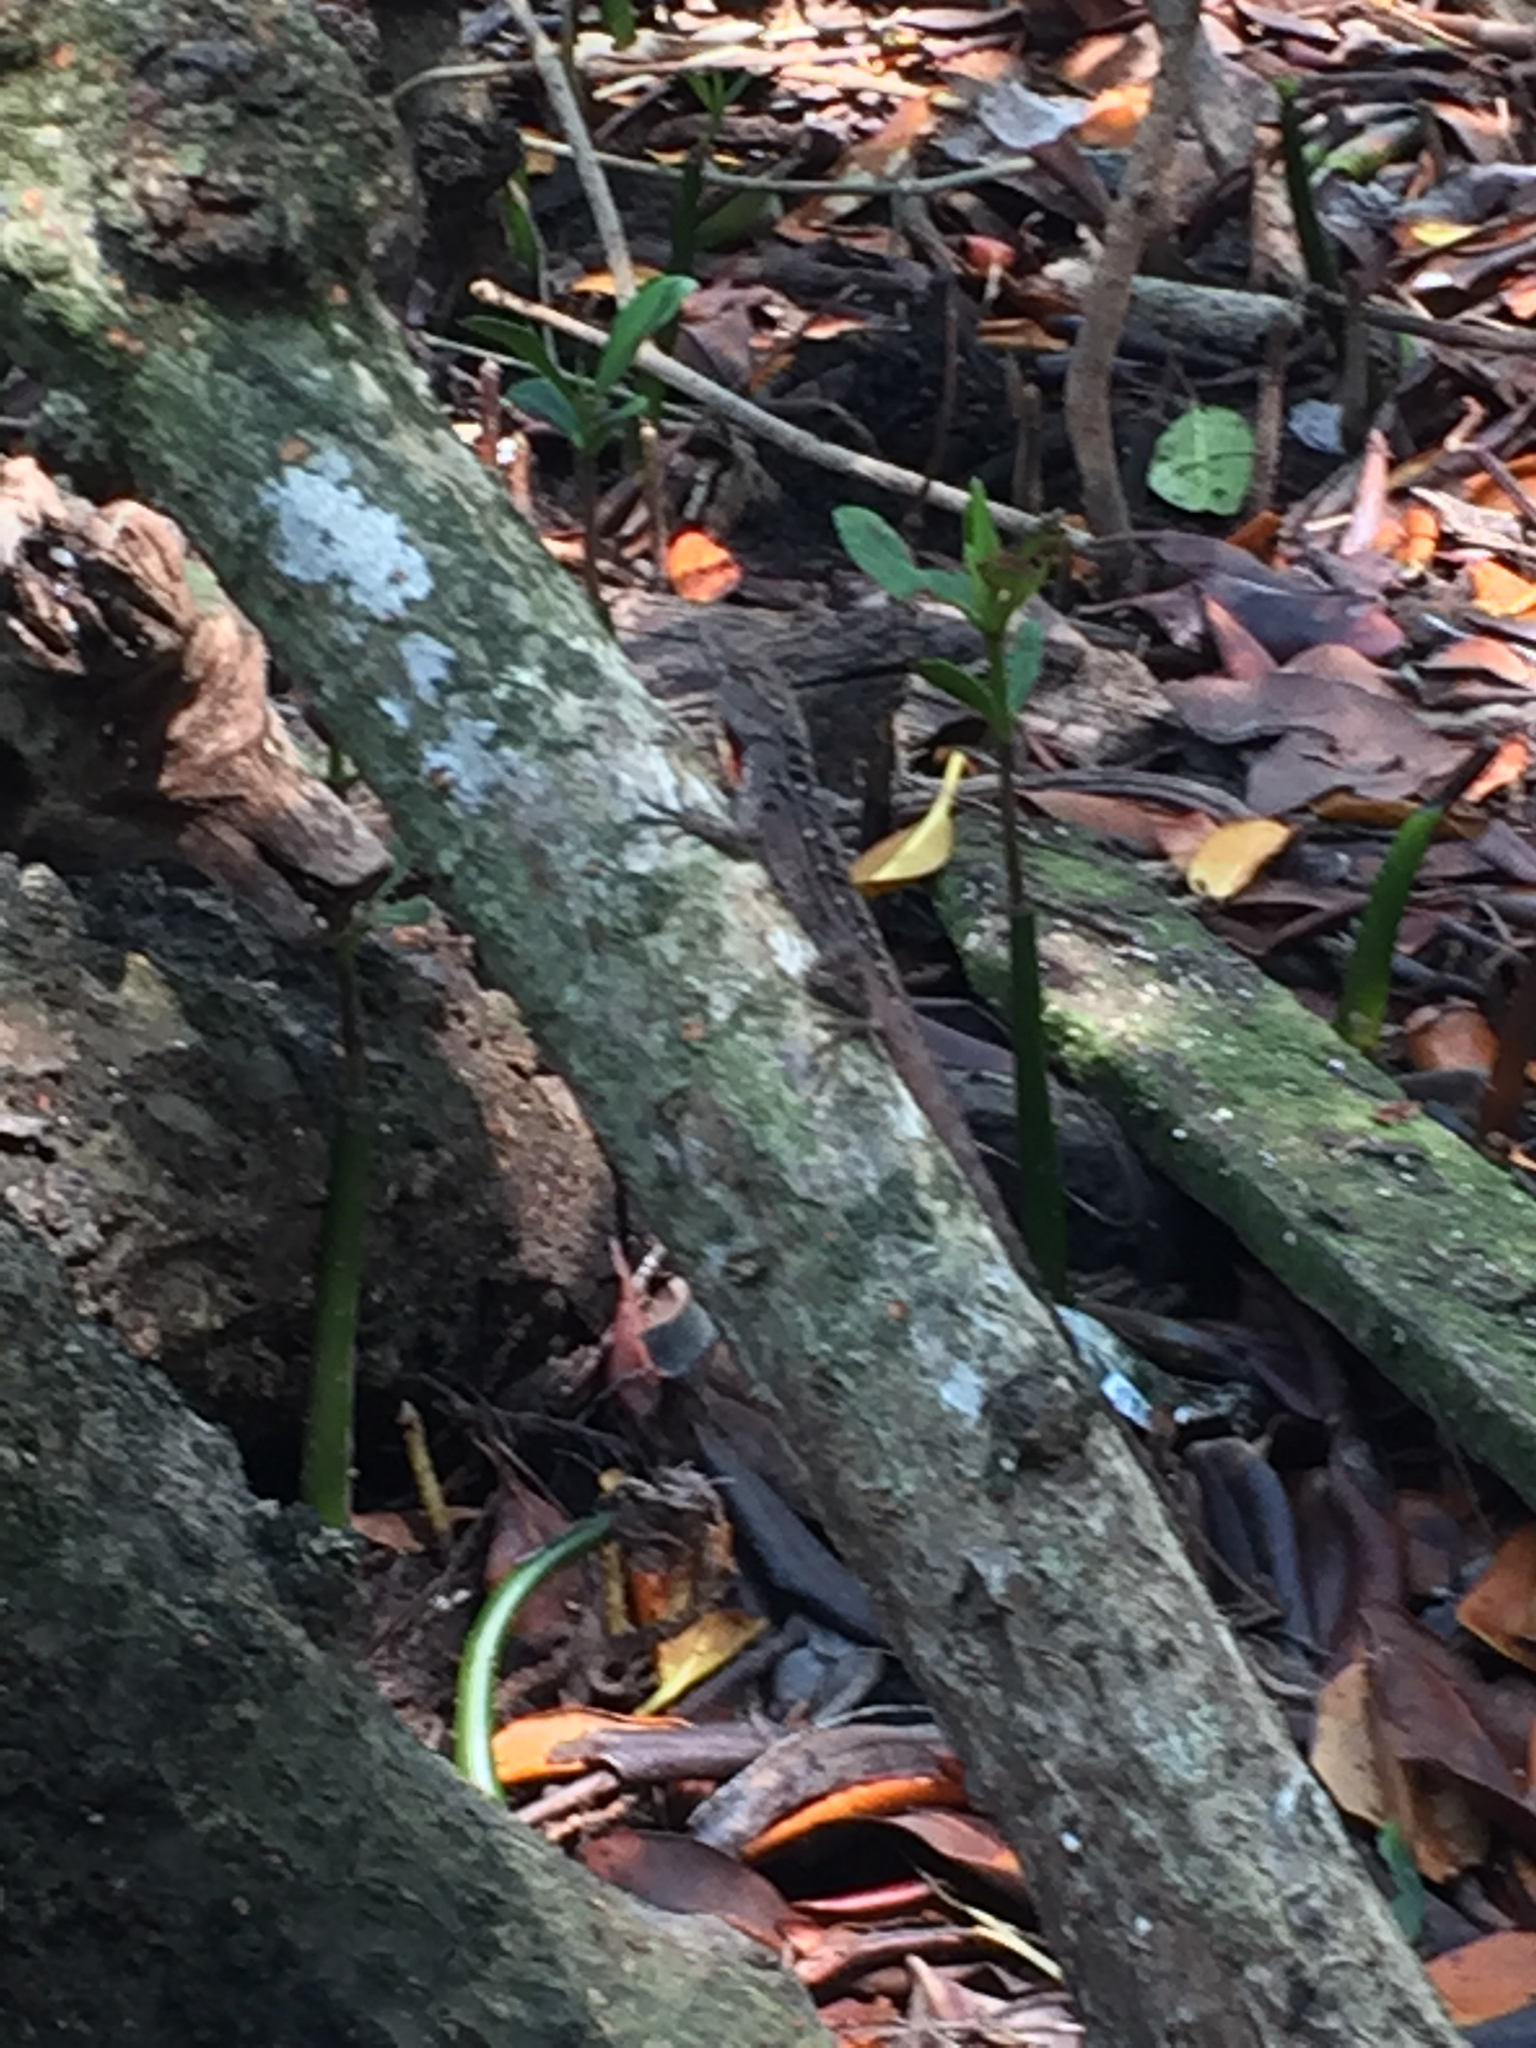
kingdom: Animalia
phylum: Chordata
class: Squamata
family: Dactyloidae
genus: Anolis
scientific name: Anolis sagrei
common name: Brown anole
